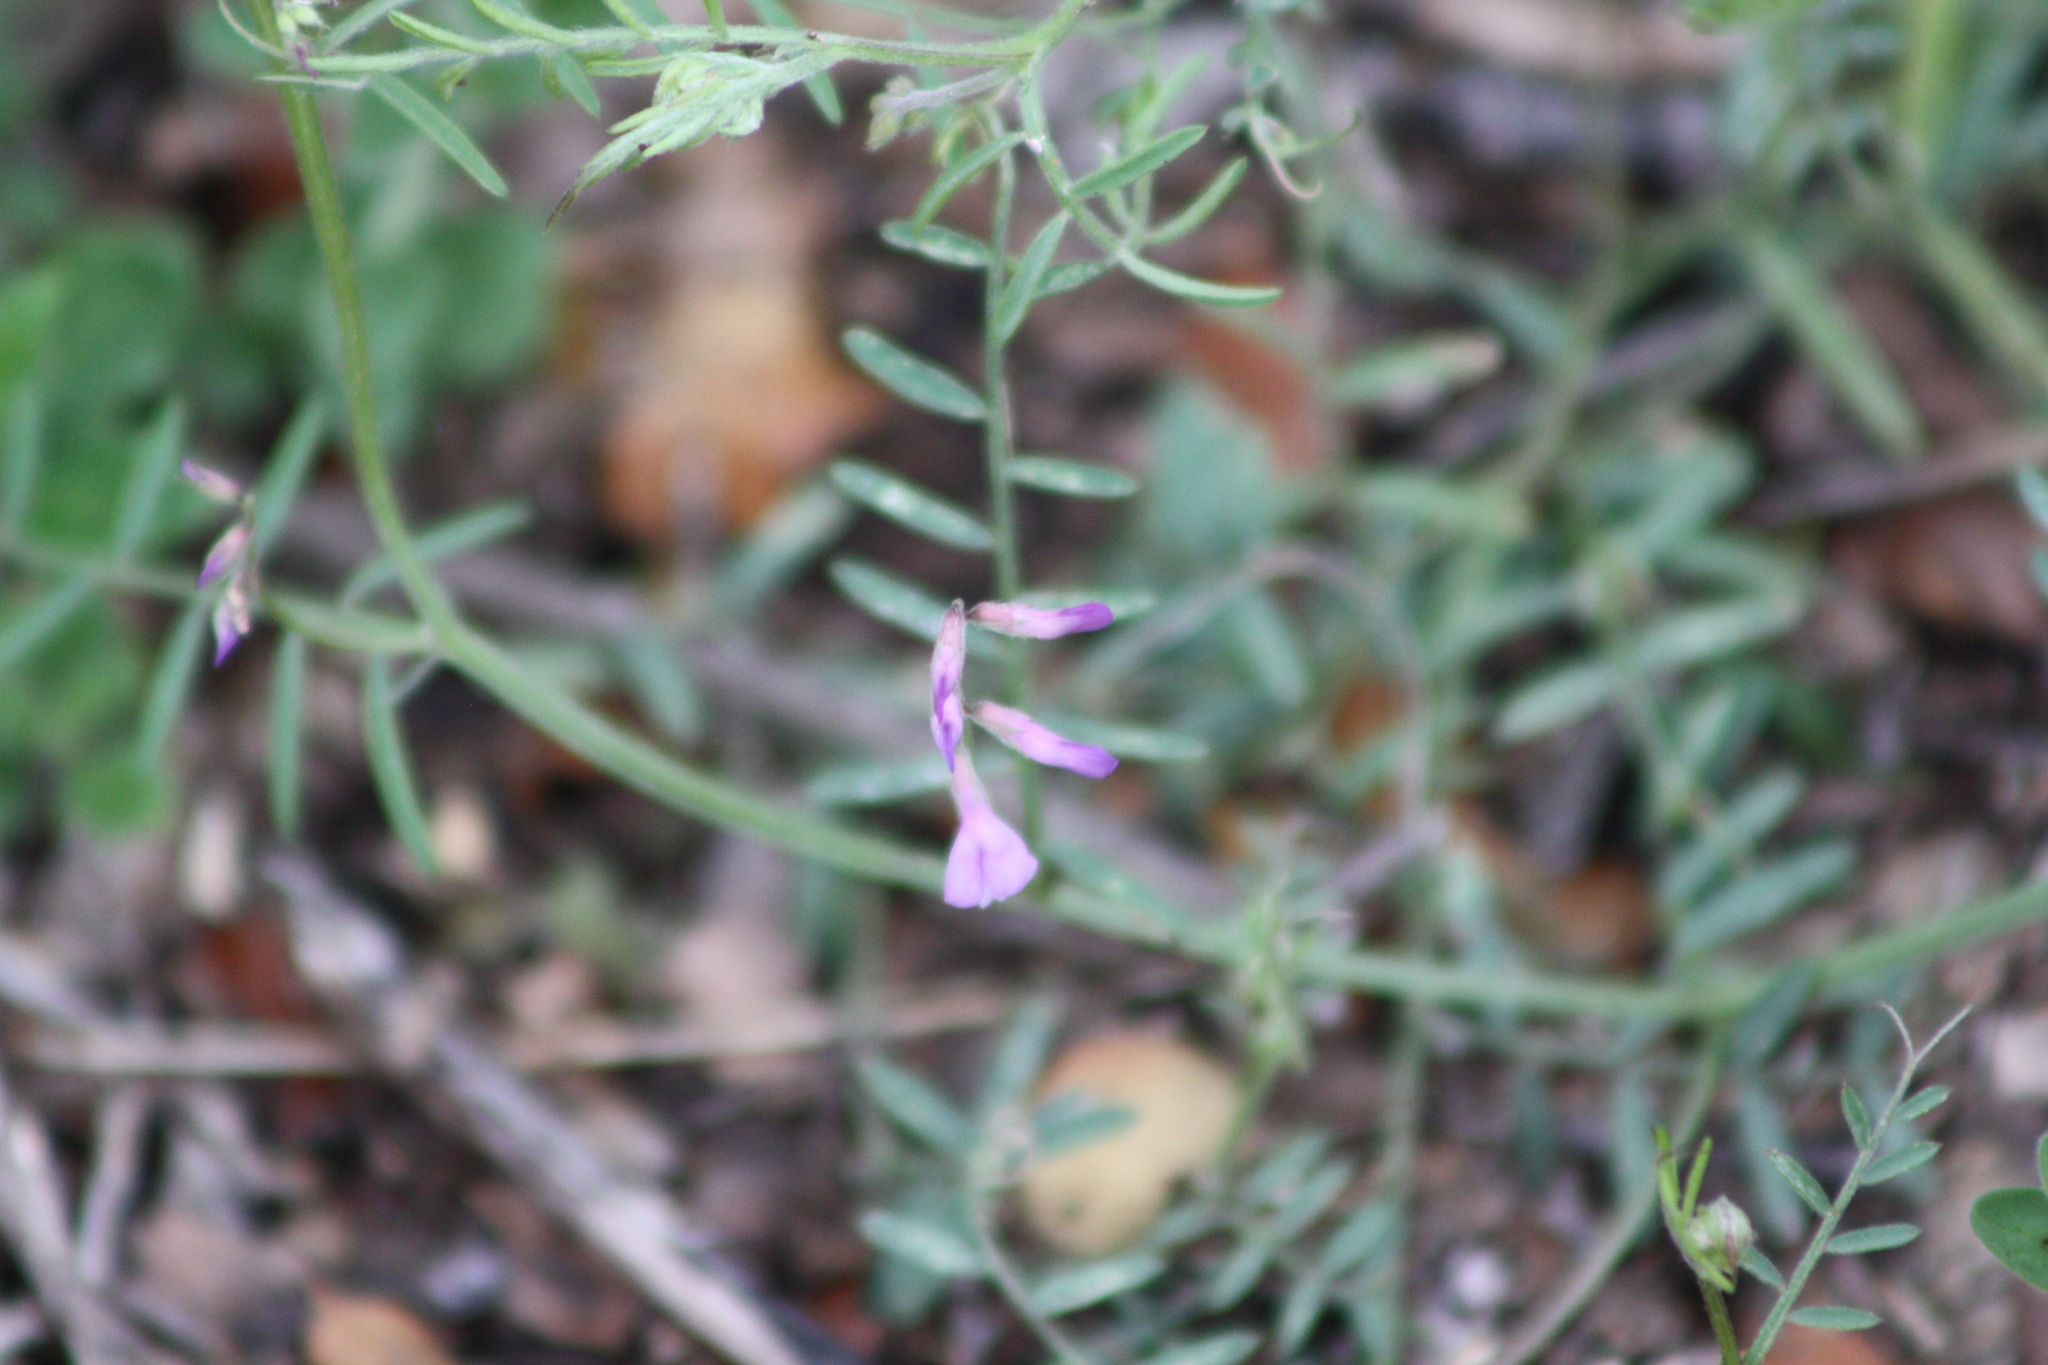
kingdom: Plantae
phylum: Tracheophyta
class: Magnoliopsida
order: Fabales
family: Fabaceae
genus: Vicia
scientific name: Vicia ludoviciana
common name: Louisiana vetch
